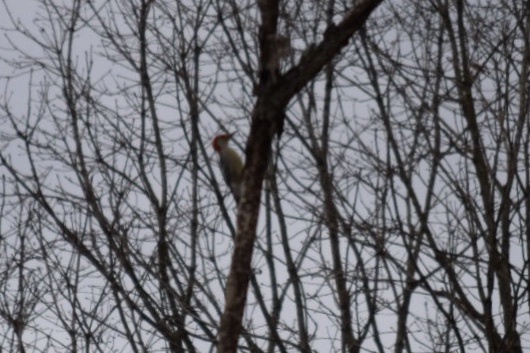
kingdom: Animalia
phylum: Chordata
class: Aves
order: Piciformes
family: Picidae
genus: Melanerpes
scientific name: Melanerpes carolinus
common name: Red-bellied woodpecker
